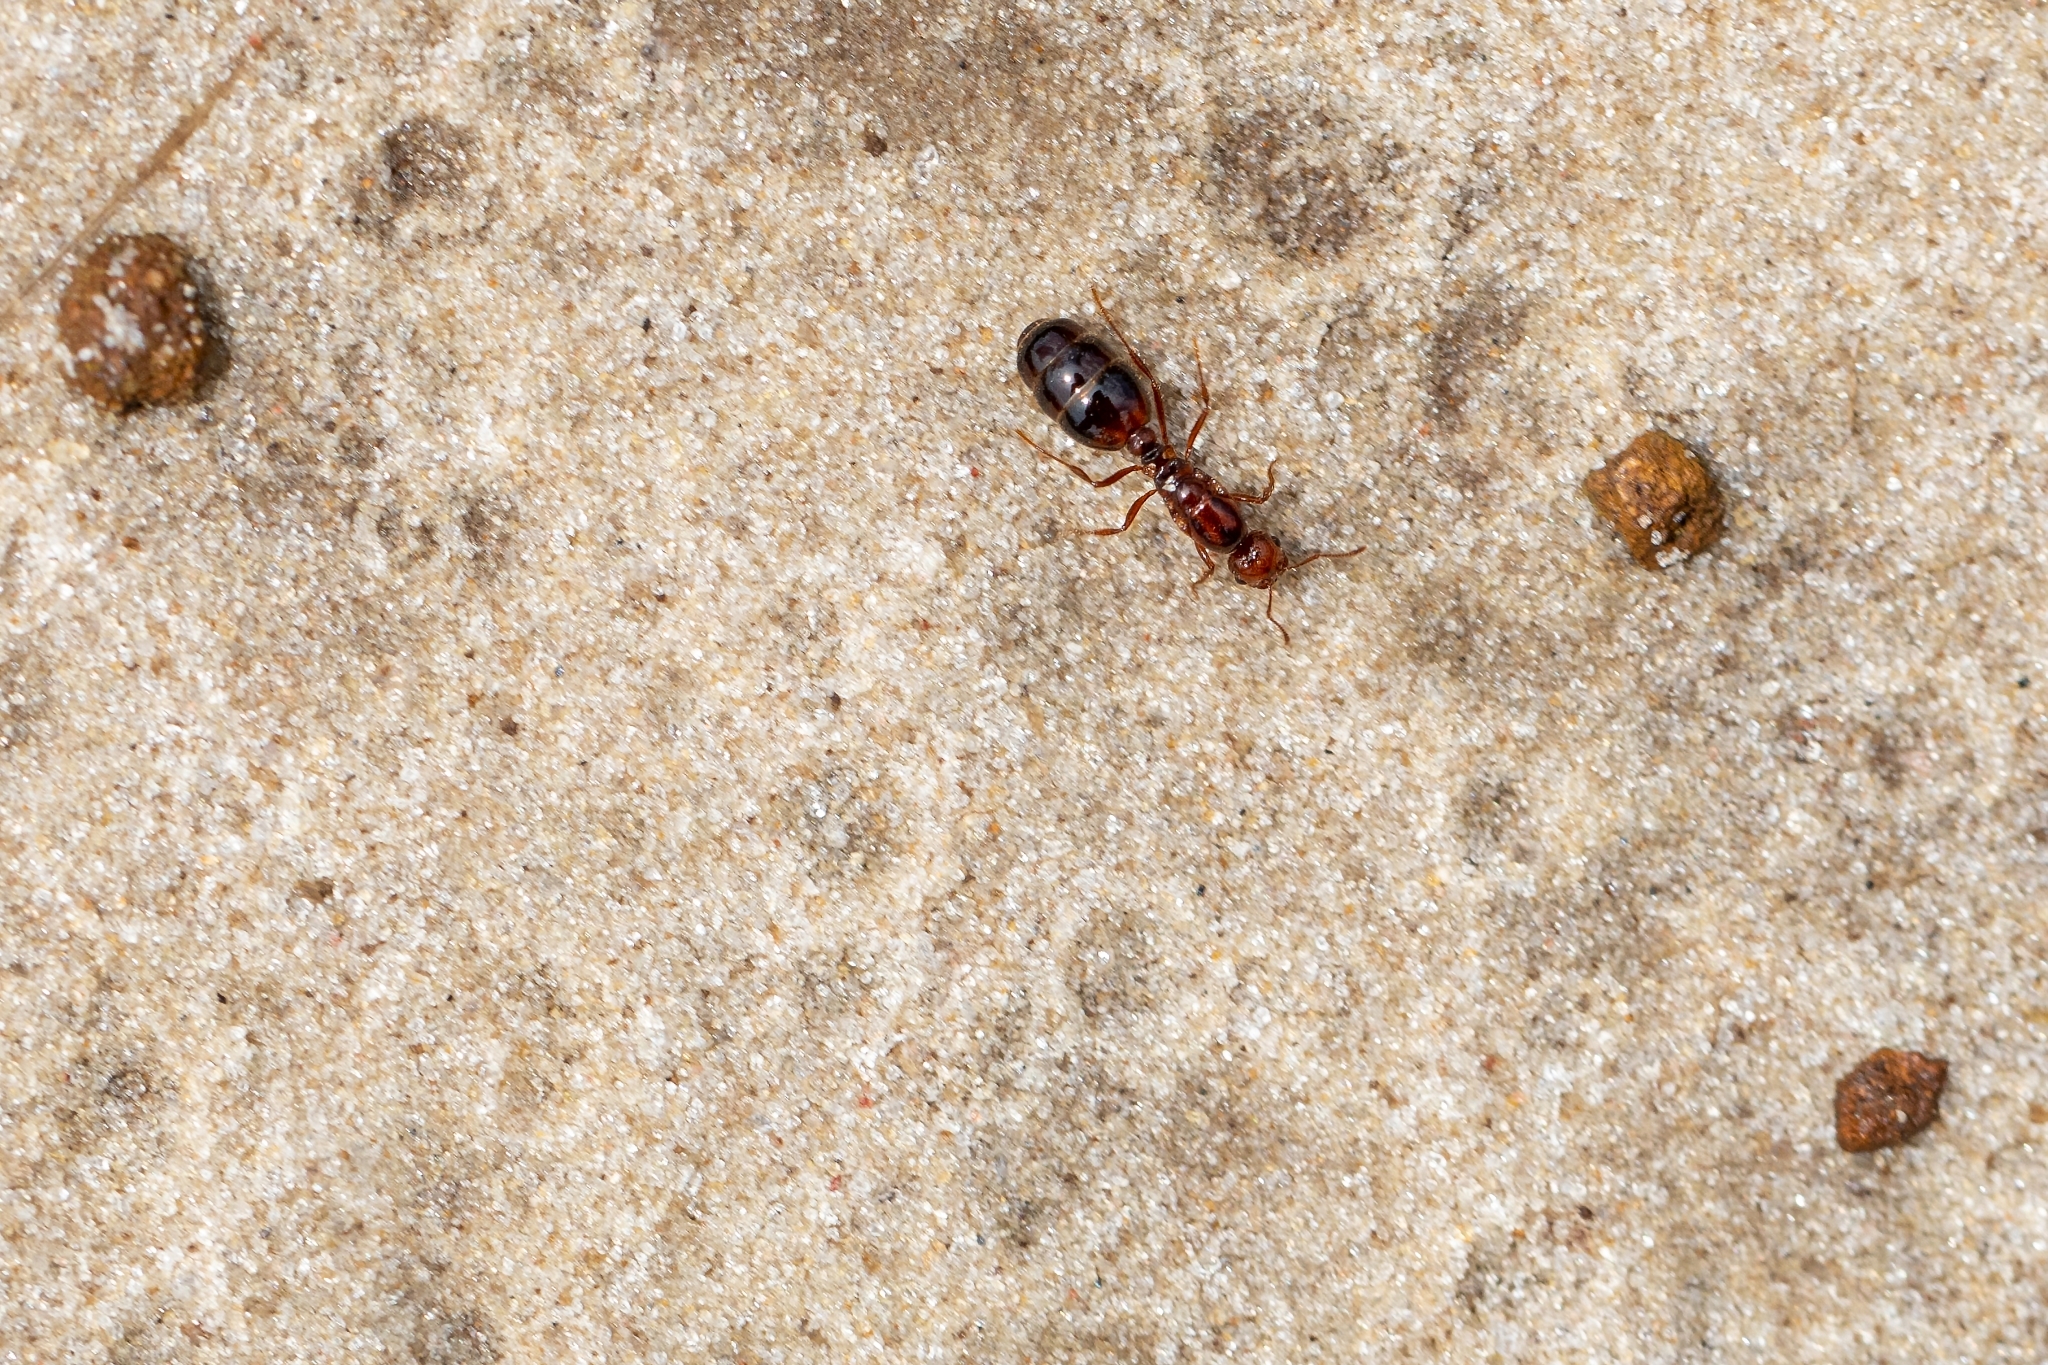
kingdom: Animalia
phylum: Arthropoda
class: Insecta
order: Hymenoptera
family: Formicidae
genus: Solenopsis
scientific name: Solenopsis invicta
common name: Red imported fire ant
